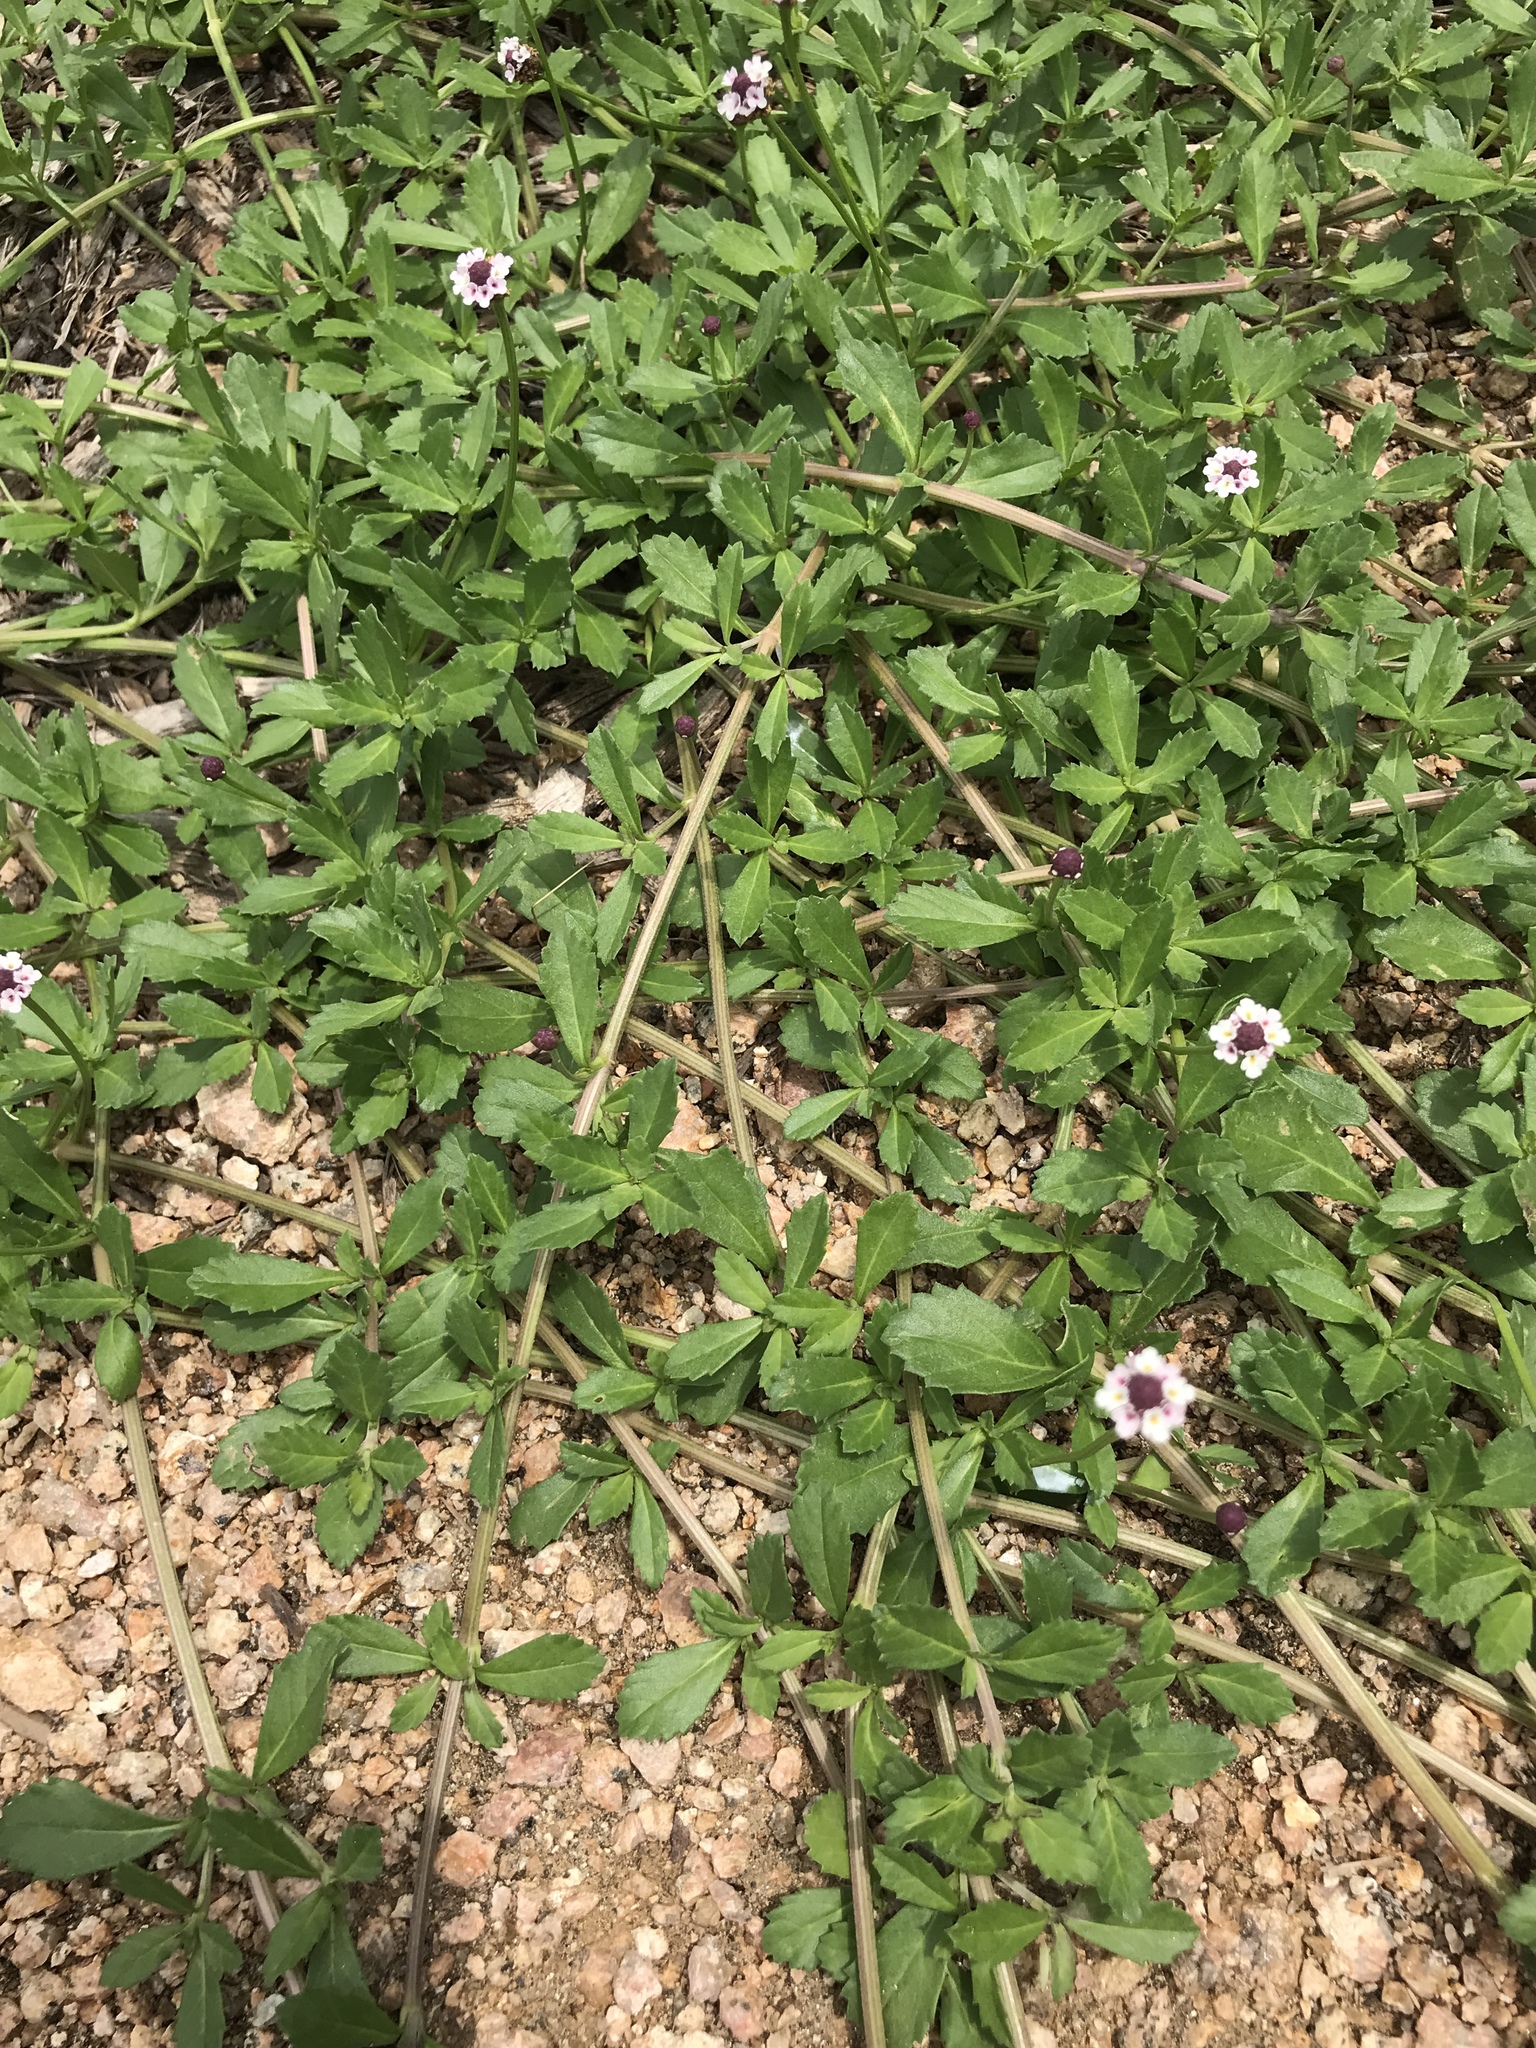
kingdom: Plantae
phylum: Tracheophyta
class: Magnoliopsida
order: Lamiales
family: Verbenaceae
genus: Phyla
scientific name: Phyla nodiflora
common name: Frogfruit
